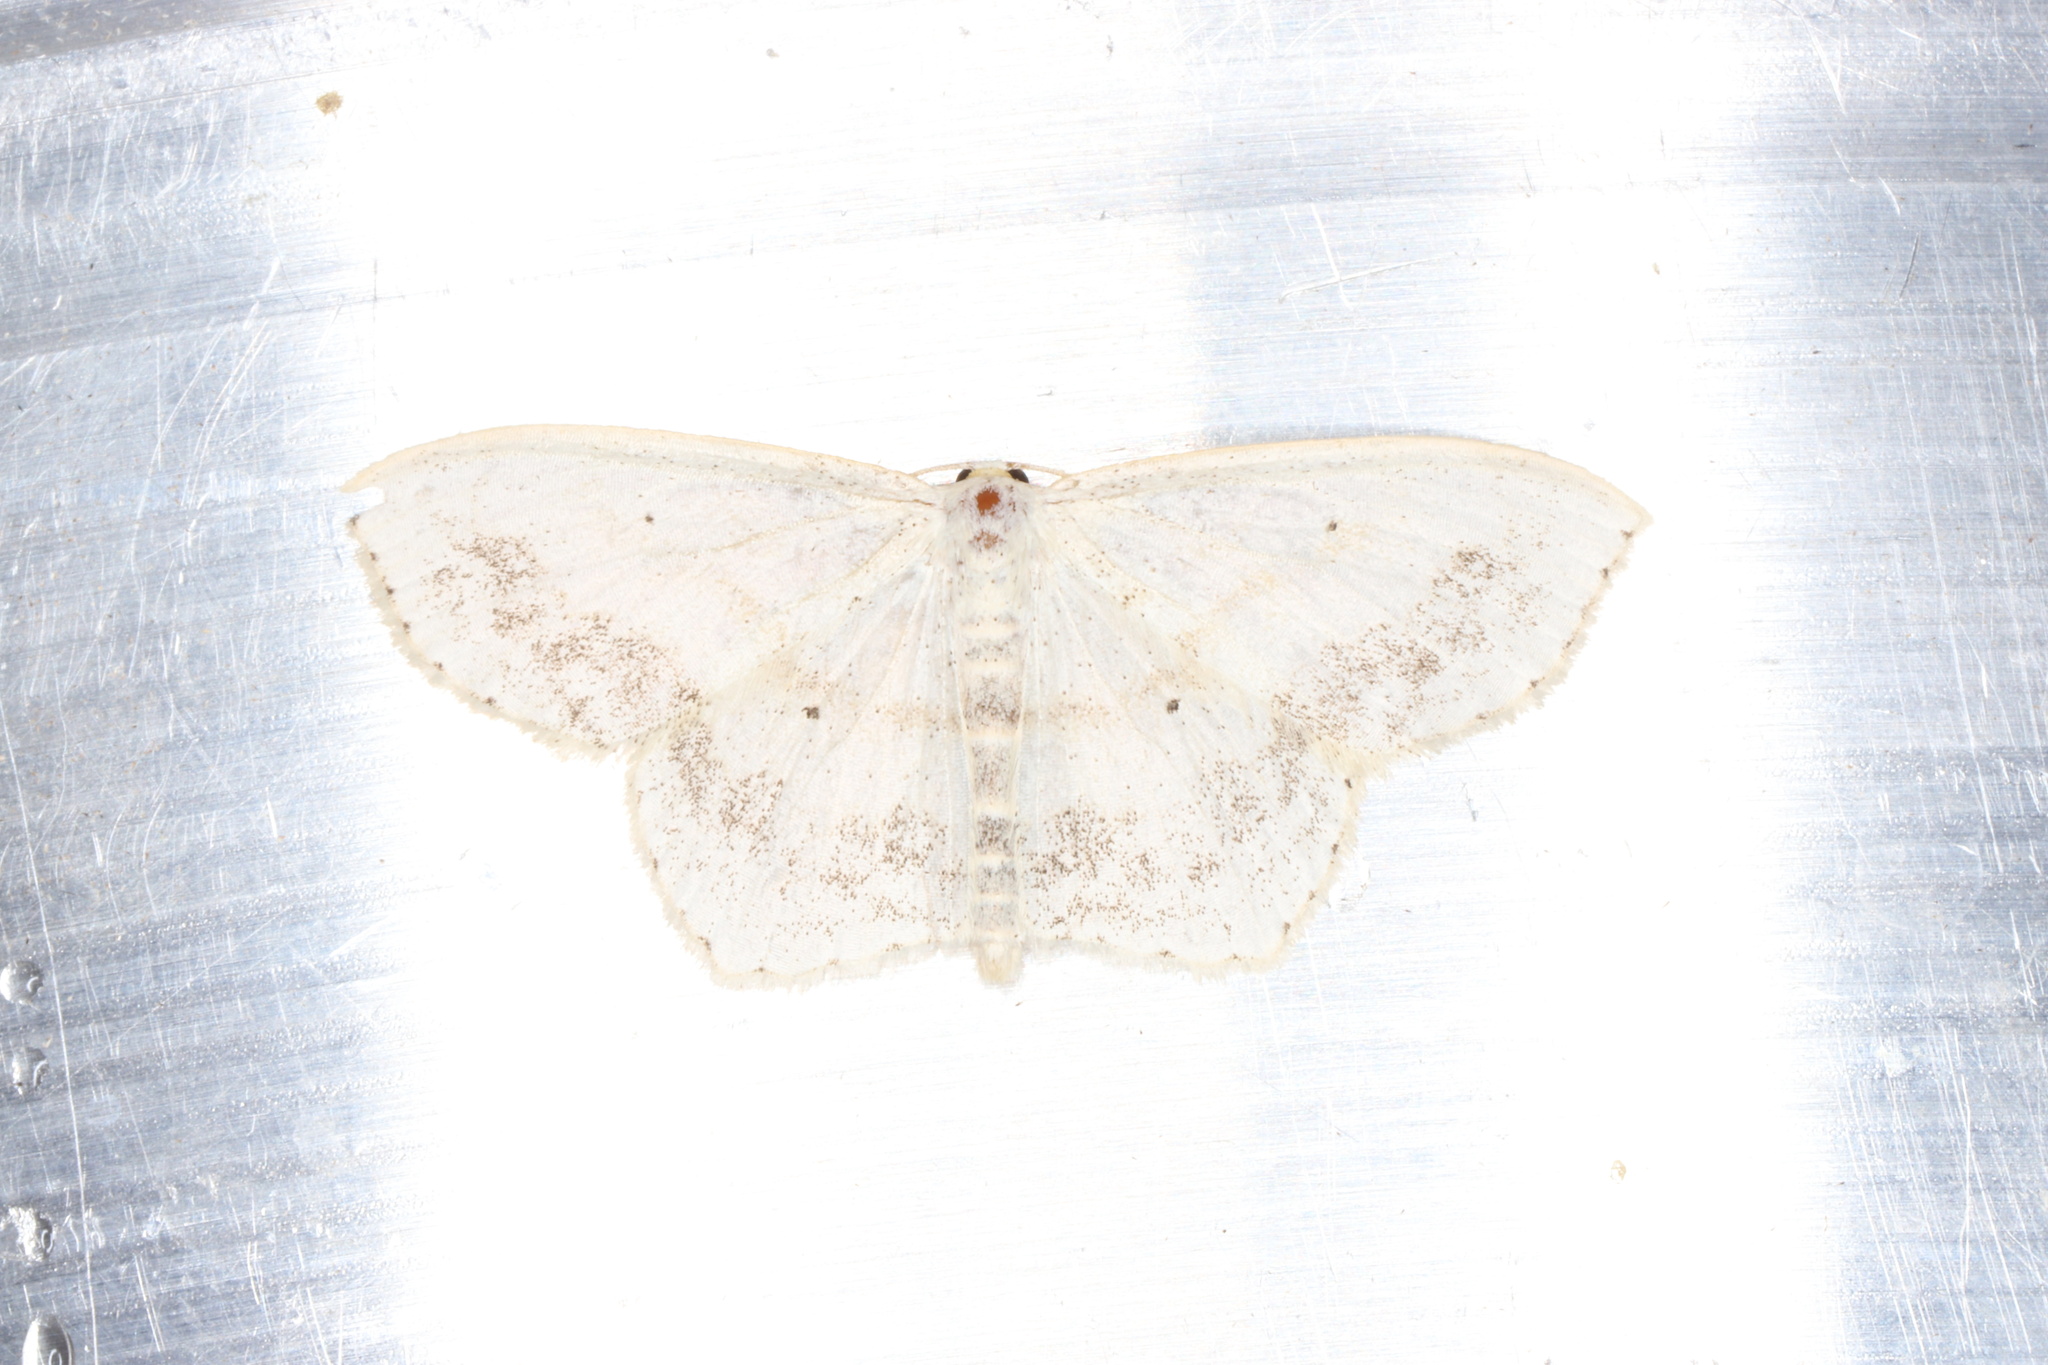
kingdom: Animalia
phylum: Arthropoda
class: Insecta
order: Lepidoptera
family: Geometridae
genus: Scopula
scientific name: Scopula limboundata
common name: Large lace border
